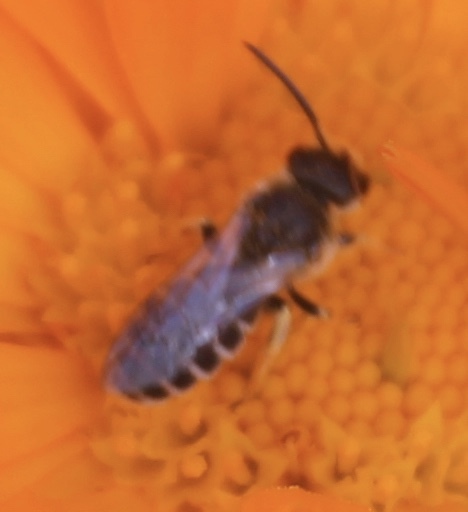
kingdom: Animalia
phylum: Arthropoda
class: Insecta
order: Hymenoptera
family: Halictidae
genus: Halictus
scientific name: Halictus ligatus
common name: Ligated furrow bee
